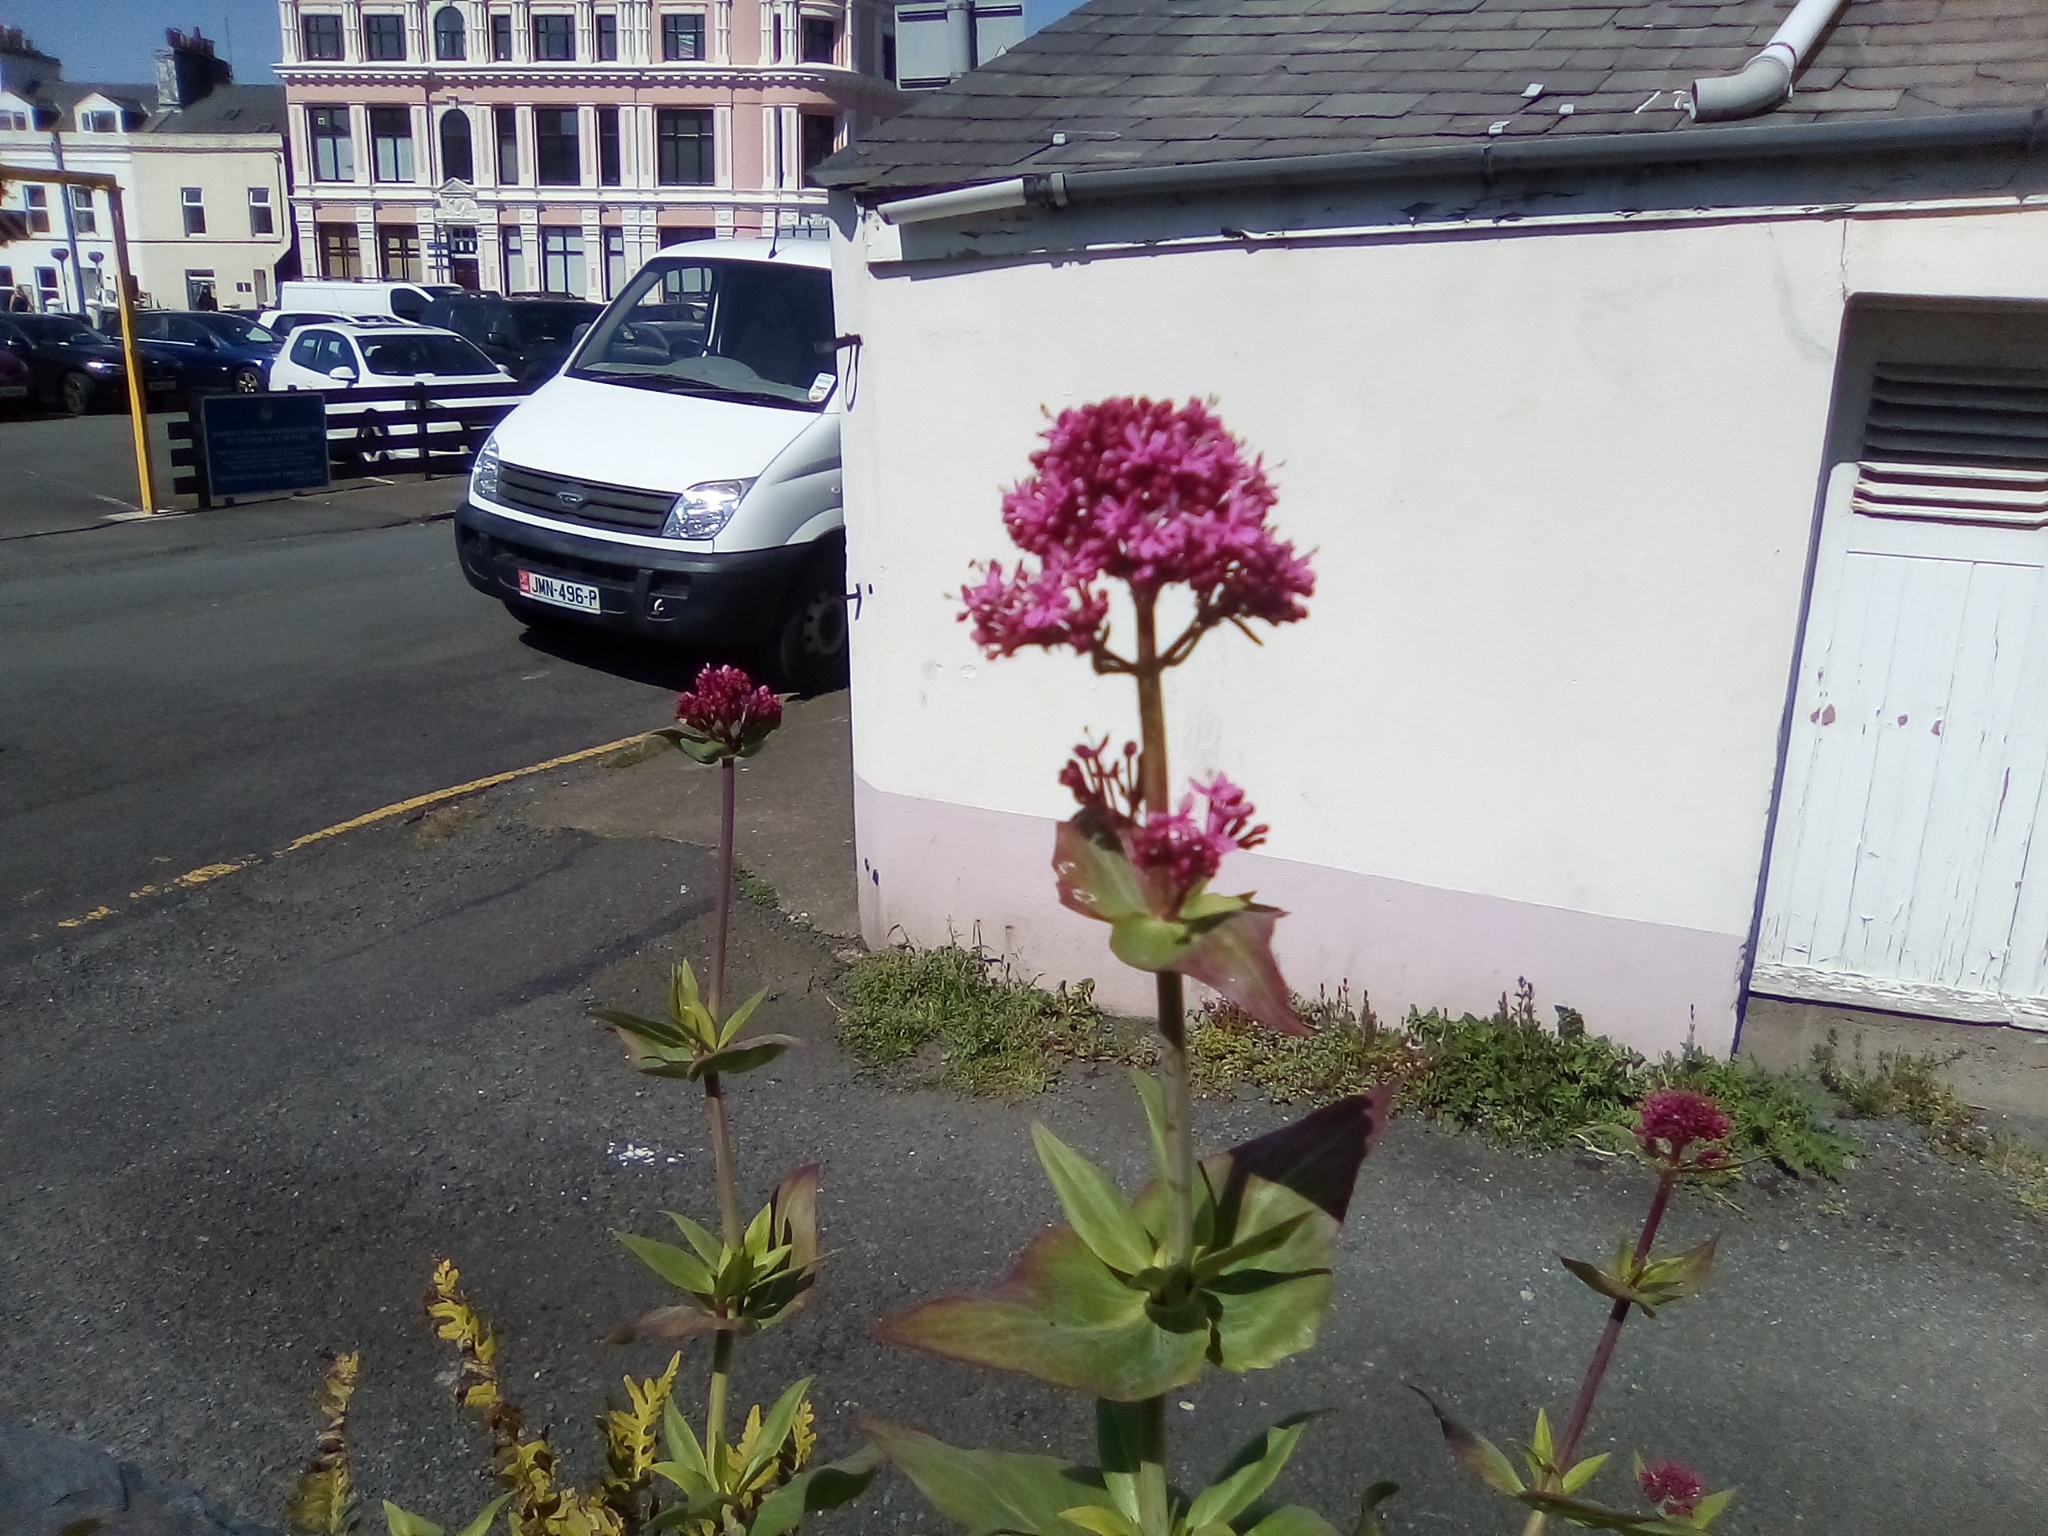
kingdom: Plantae
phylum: Tracheophyta
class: Magnoliopsida
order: Dipsacales
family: Caprifoliaceae
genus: Centranthus
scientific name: Centranthus ruber
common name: Red valerian
